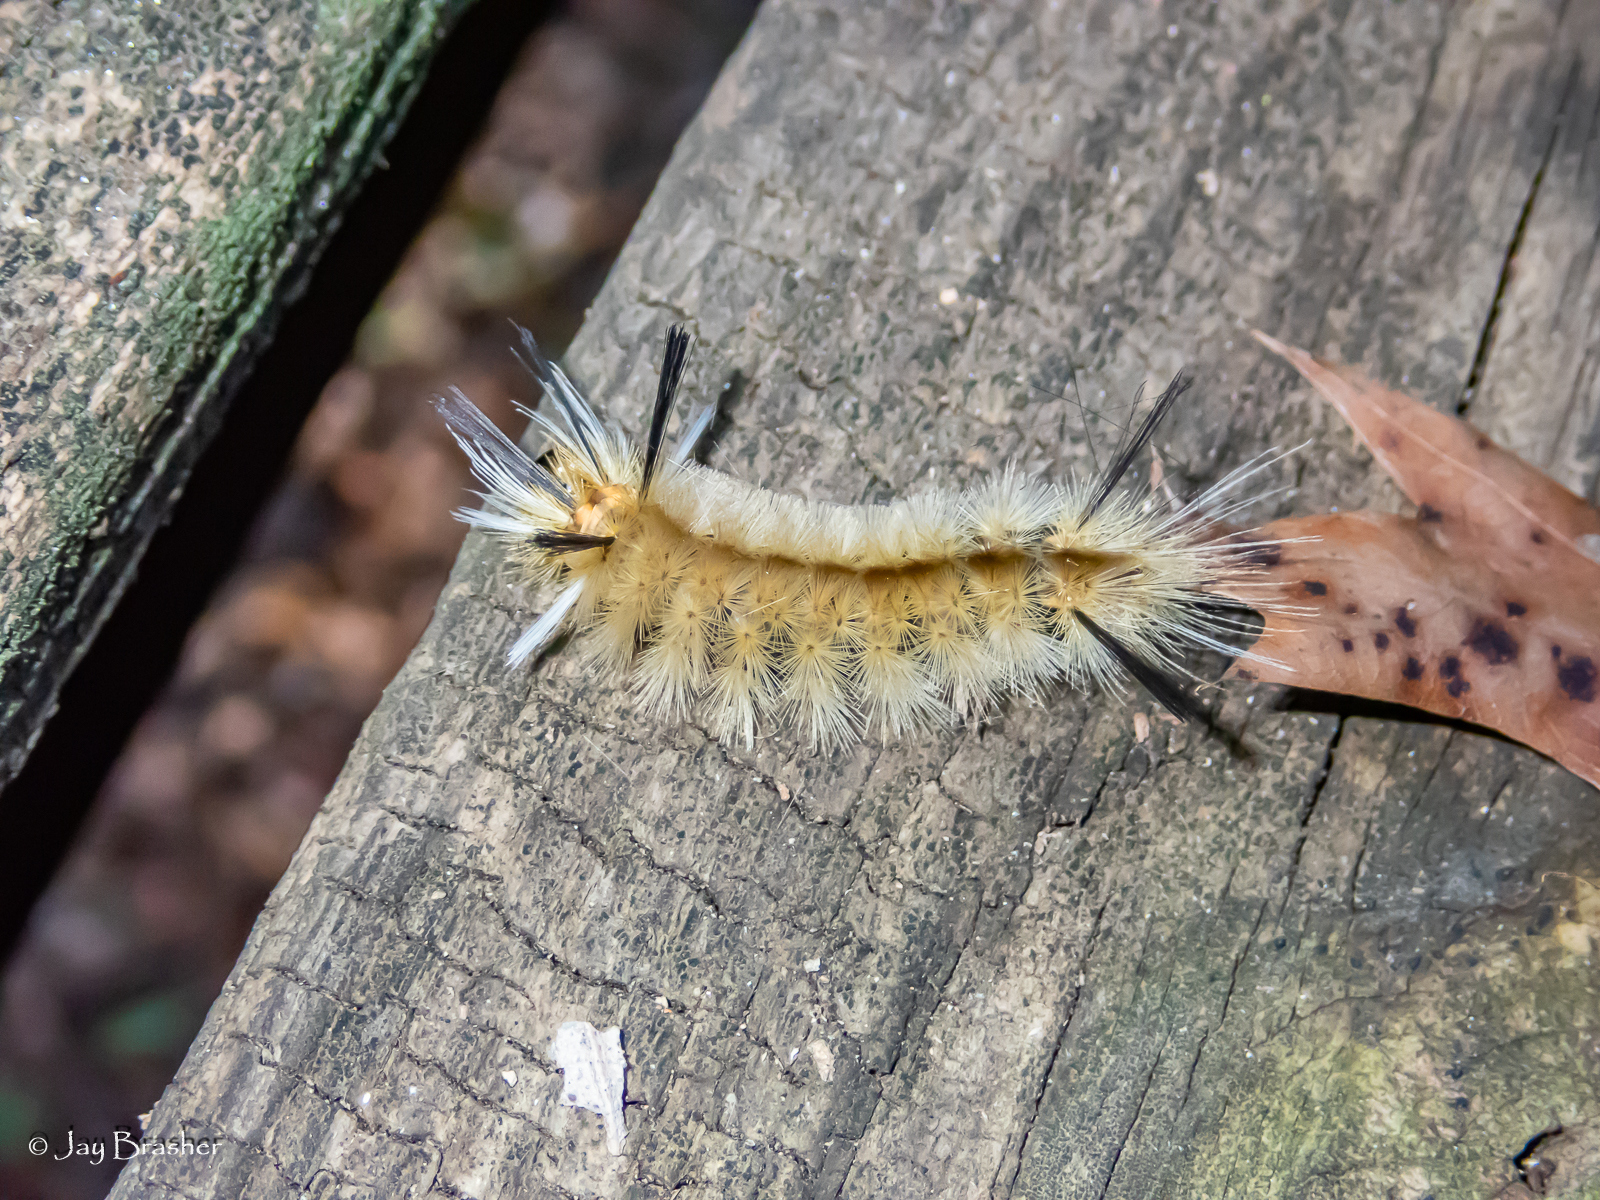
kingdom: Animalia
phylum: Arthropoda
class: Insecta
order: Lepidoptera
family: Erebidae
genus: Halysidota
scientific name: Halysidota tessellaris
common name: Banded tussock moth
